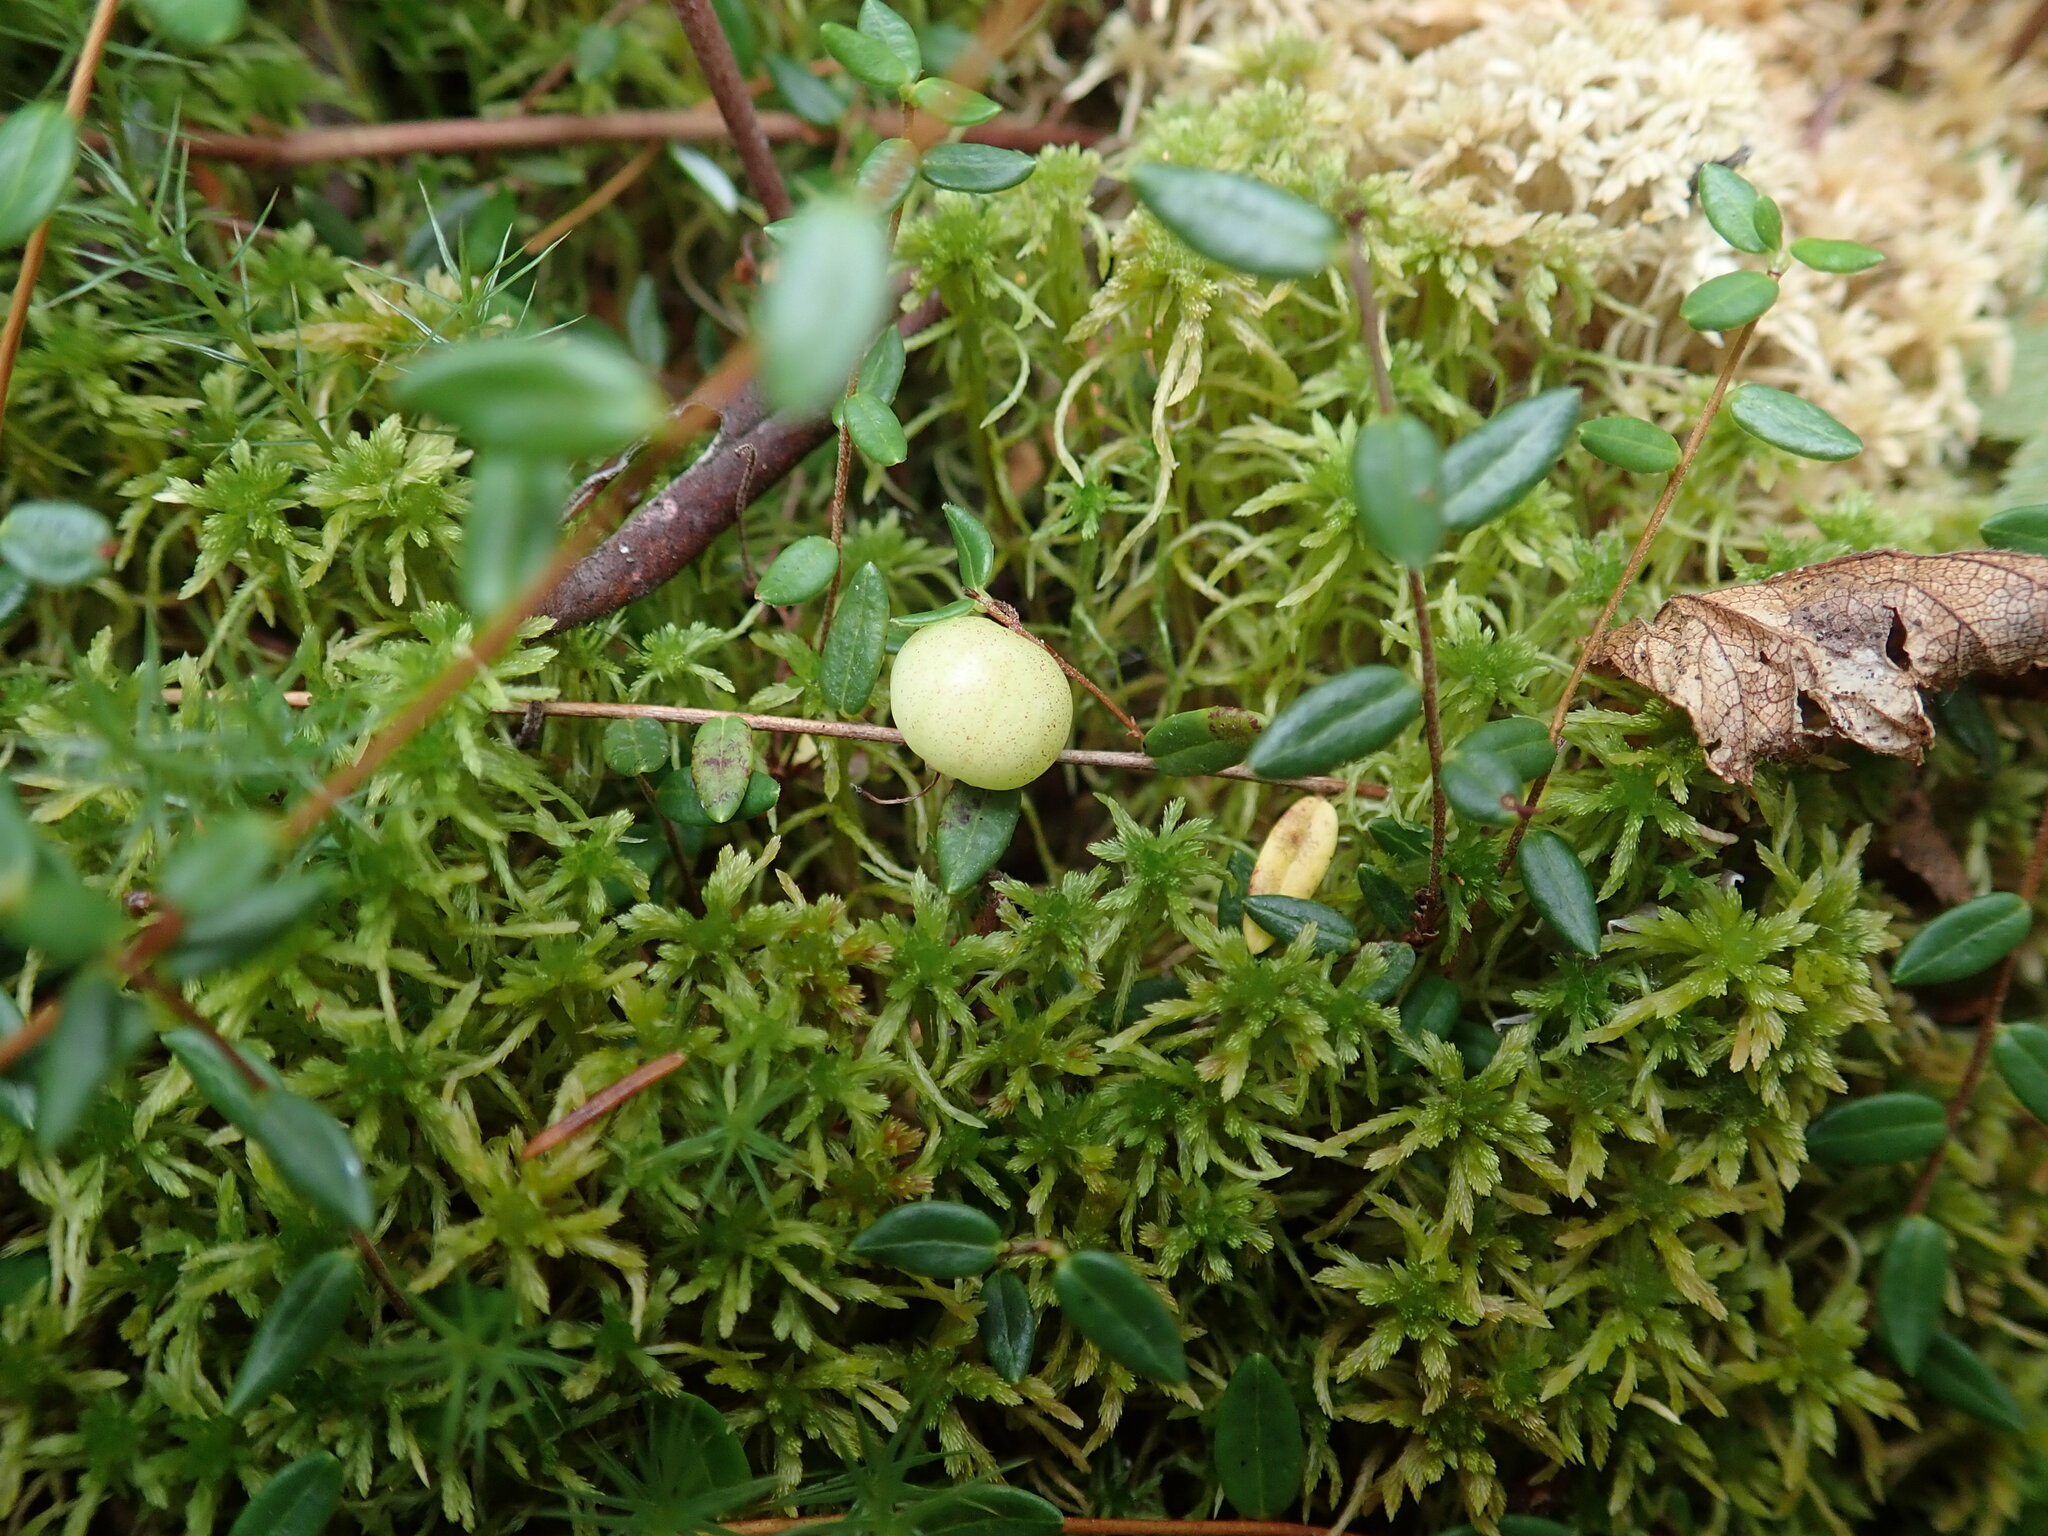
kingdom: Plantae
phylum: Tracheophyta
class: Magnoliopsida
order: Ericales
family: Ericaceae
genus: Vaccinium
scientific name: Vaccinium oxycoccos
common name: Cranberry
